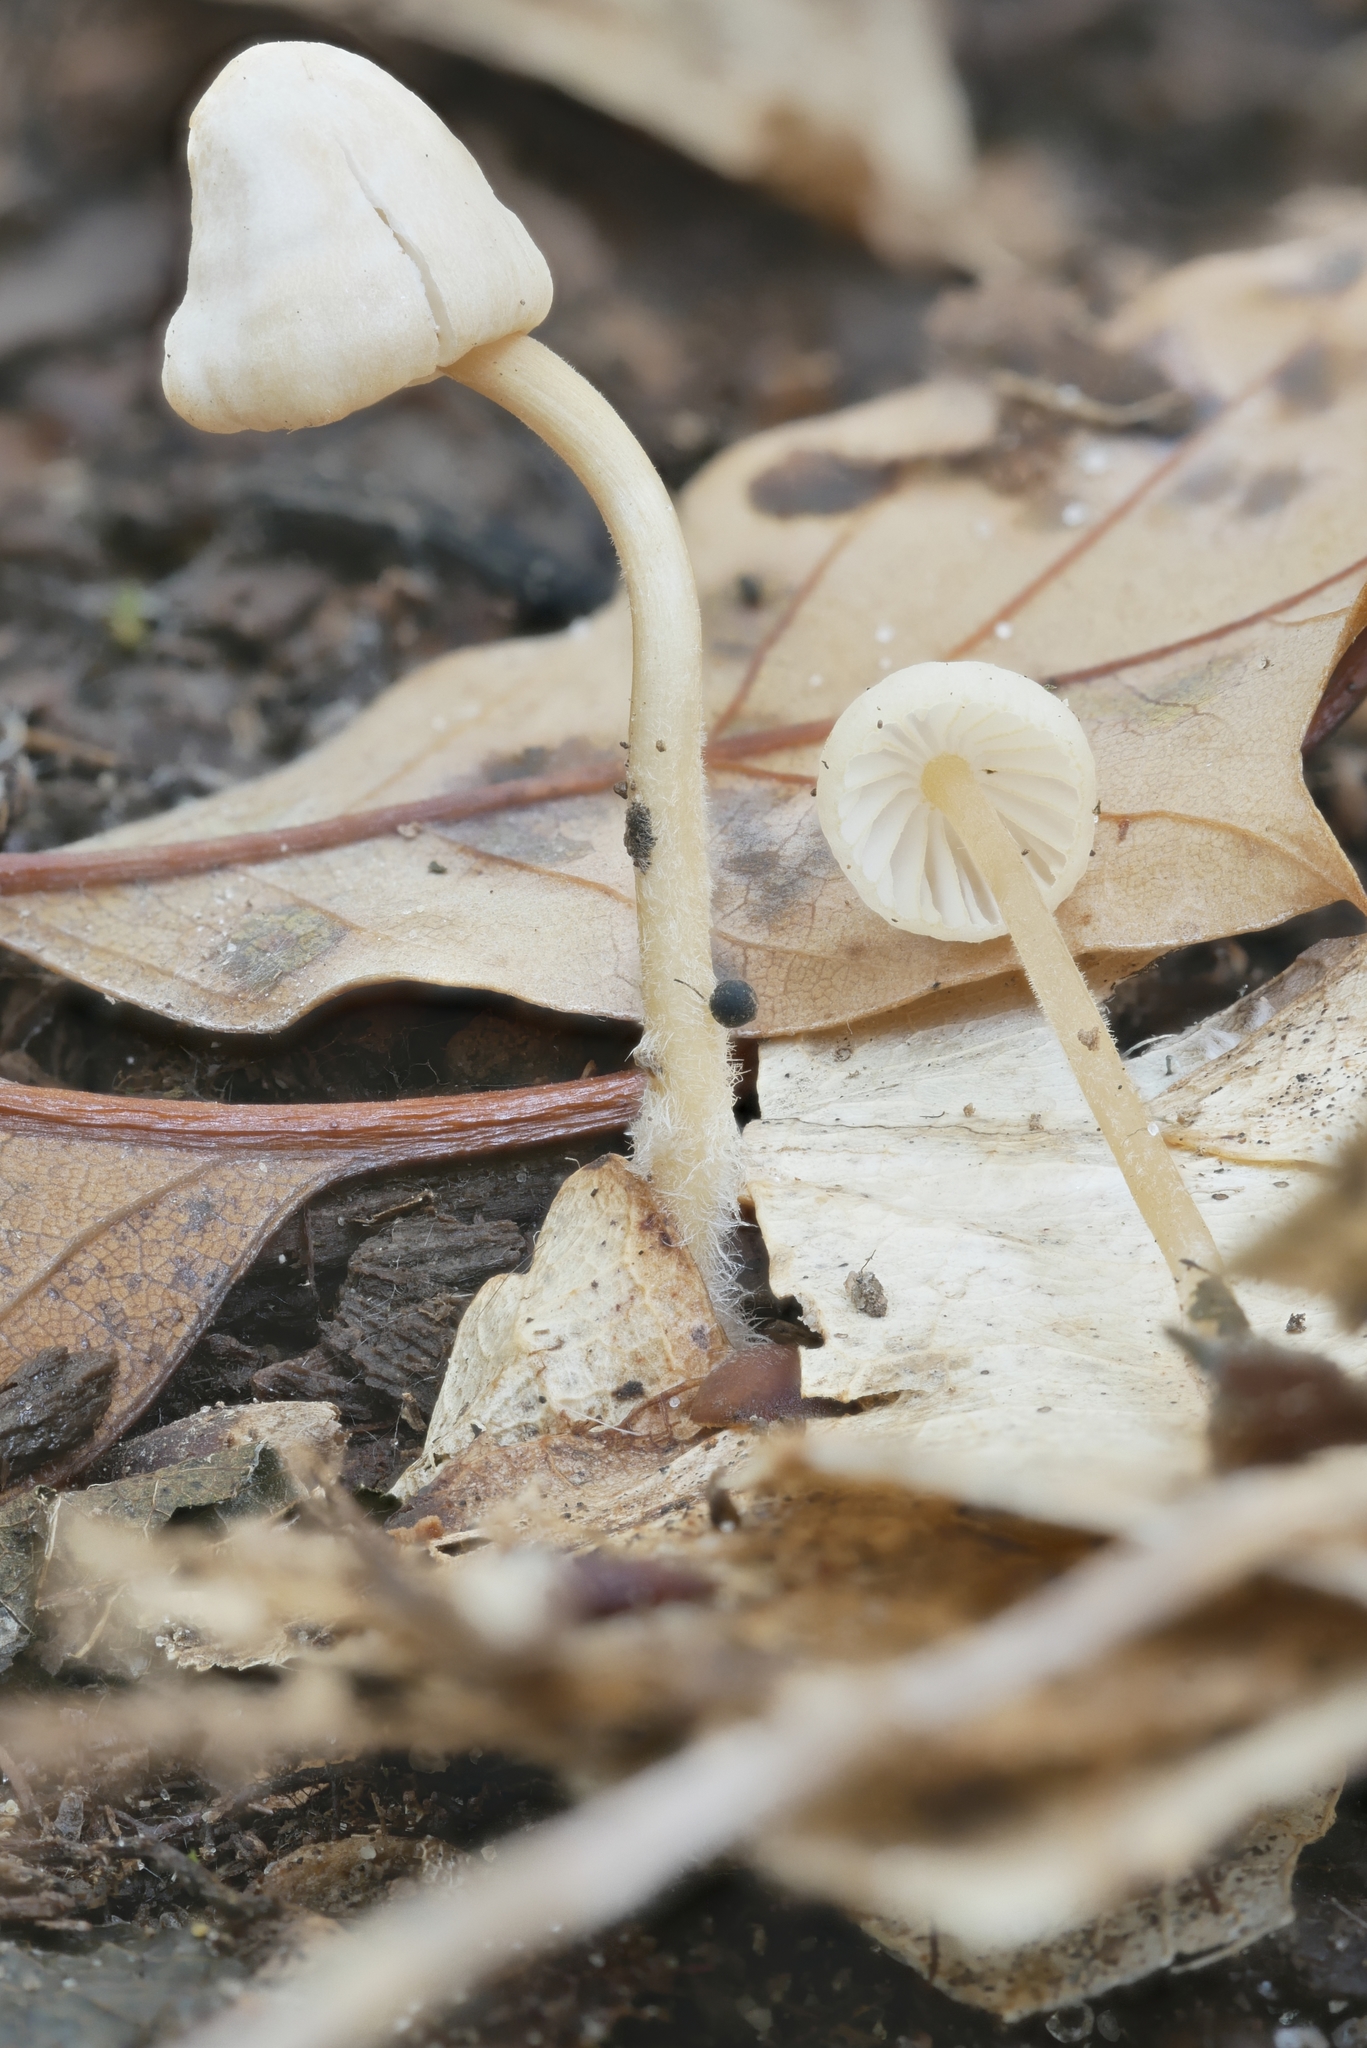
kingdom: Fungi
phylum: Basidiomycota
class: Agaricomycetes
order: Agaricales
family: Mycenaceae
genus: Mycena
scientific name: Mycena citrinomarginata
